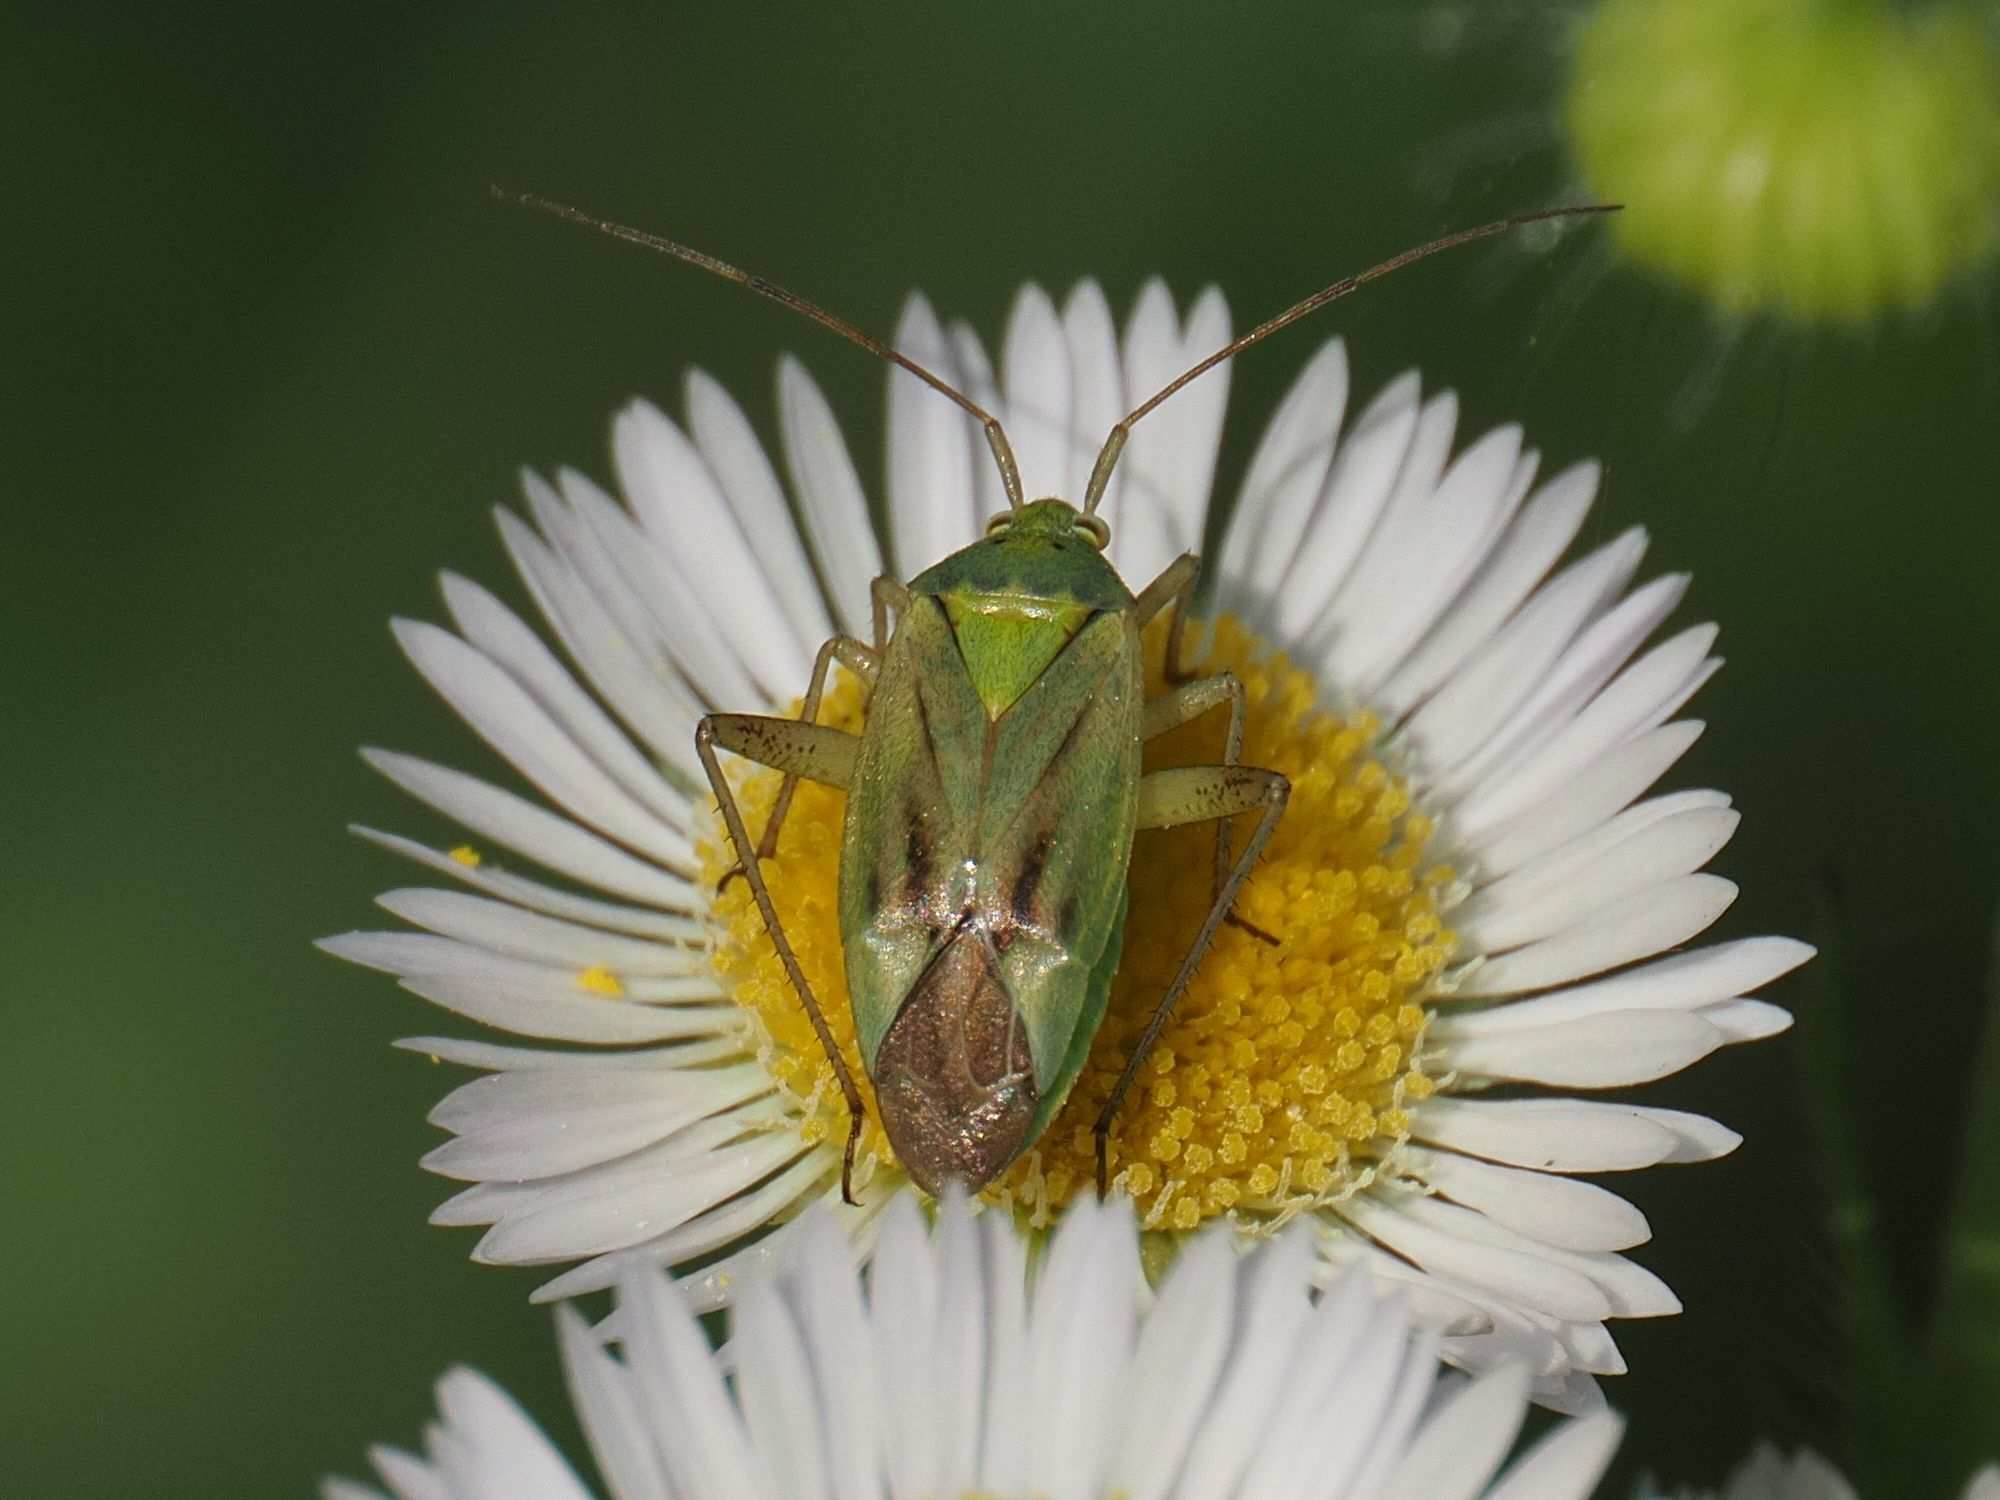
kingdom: Animalia
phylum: Arthropoda
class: Insecta
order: Hemiptera
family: Miridae
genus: Closterotomus
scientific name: Closterotomus norvegicus
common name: Plant bug
